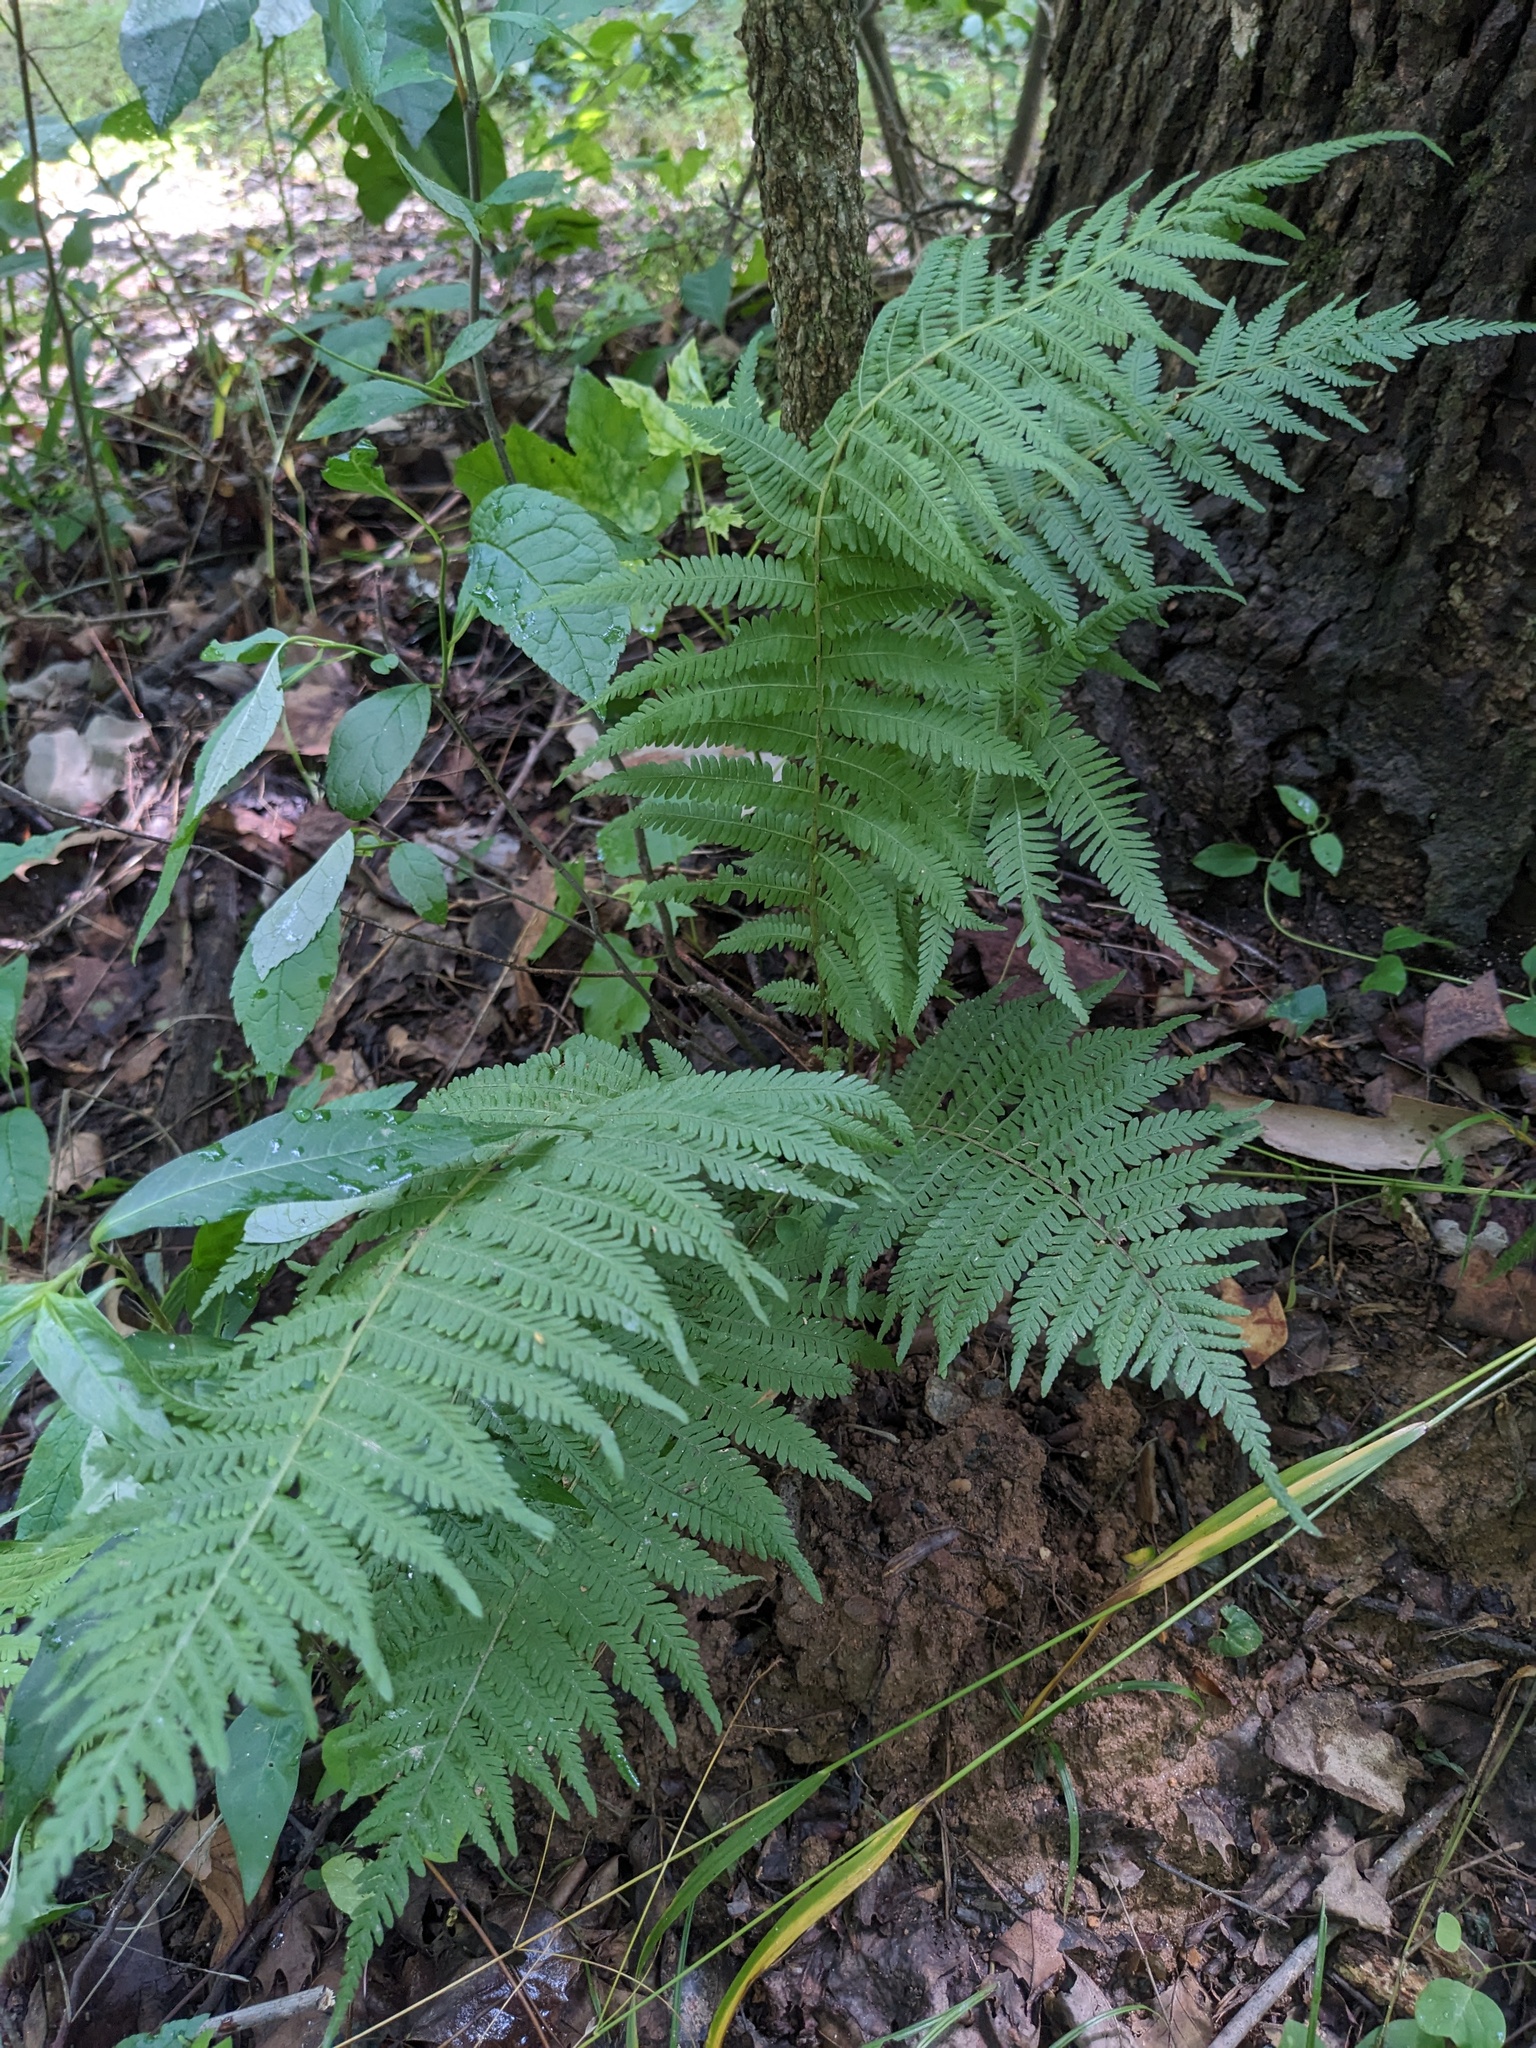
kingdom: Plantae
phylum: Tracheophyta
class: Polypodiopsida
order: Polypodiales
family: Thelypteridaceae
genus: Amauropelta
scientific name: Amauropelta noveboracensis
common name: New york fern
